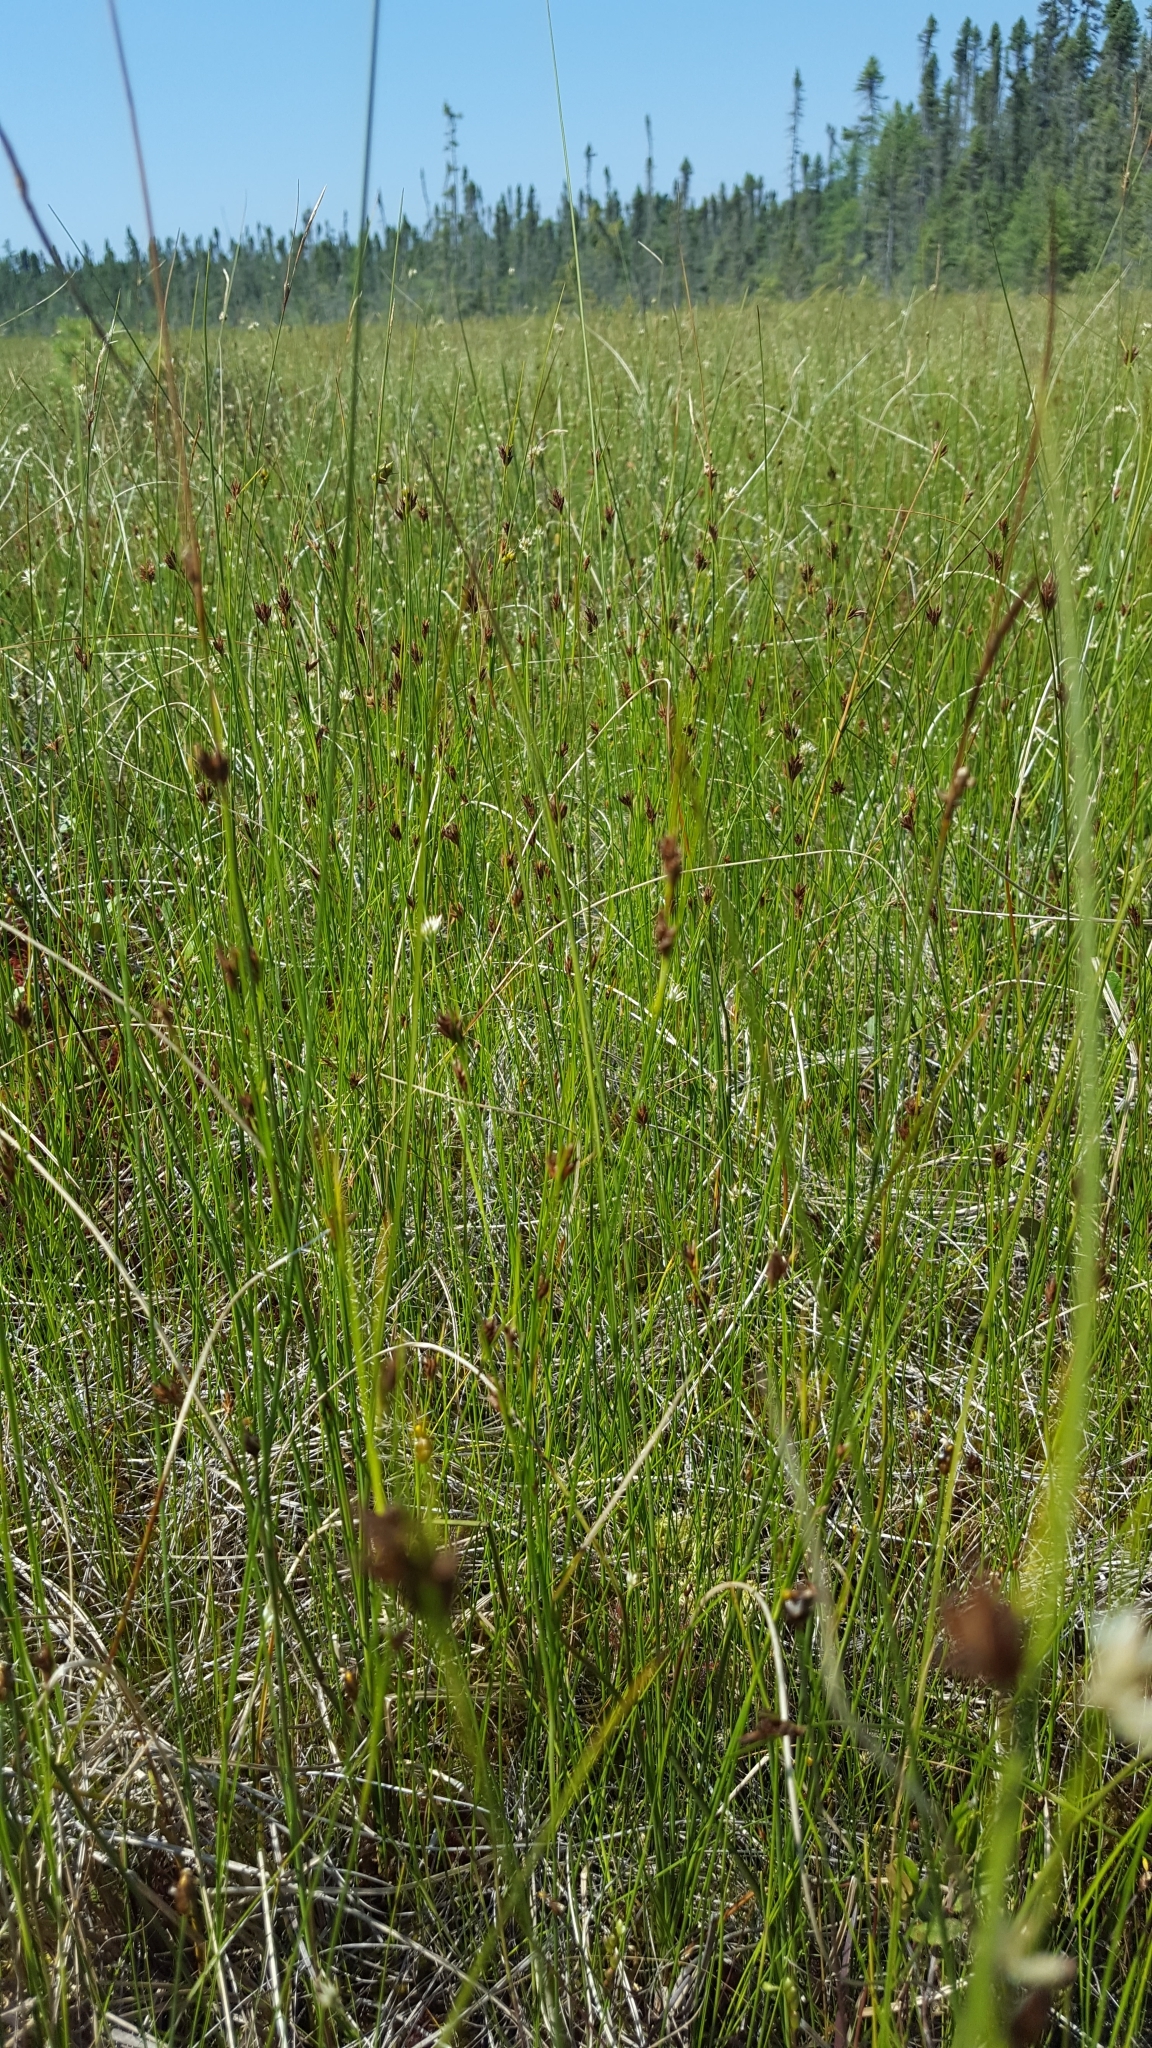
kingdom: Plantae
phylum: Tracheophyta
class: Liliopsida
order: Poales
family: Cyperaceae
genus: Rhynchospora
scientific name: Rhynchospora fusca
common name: Brown beak-sedge
